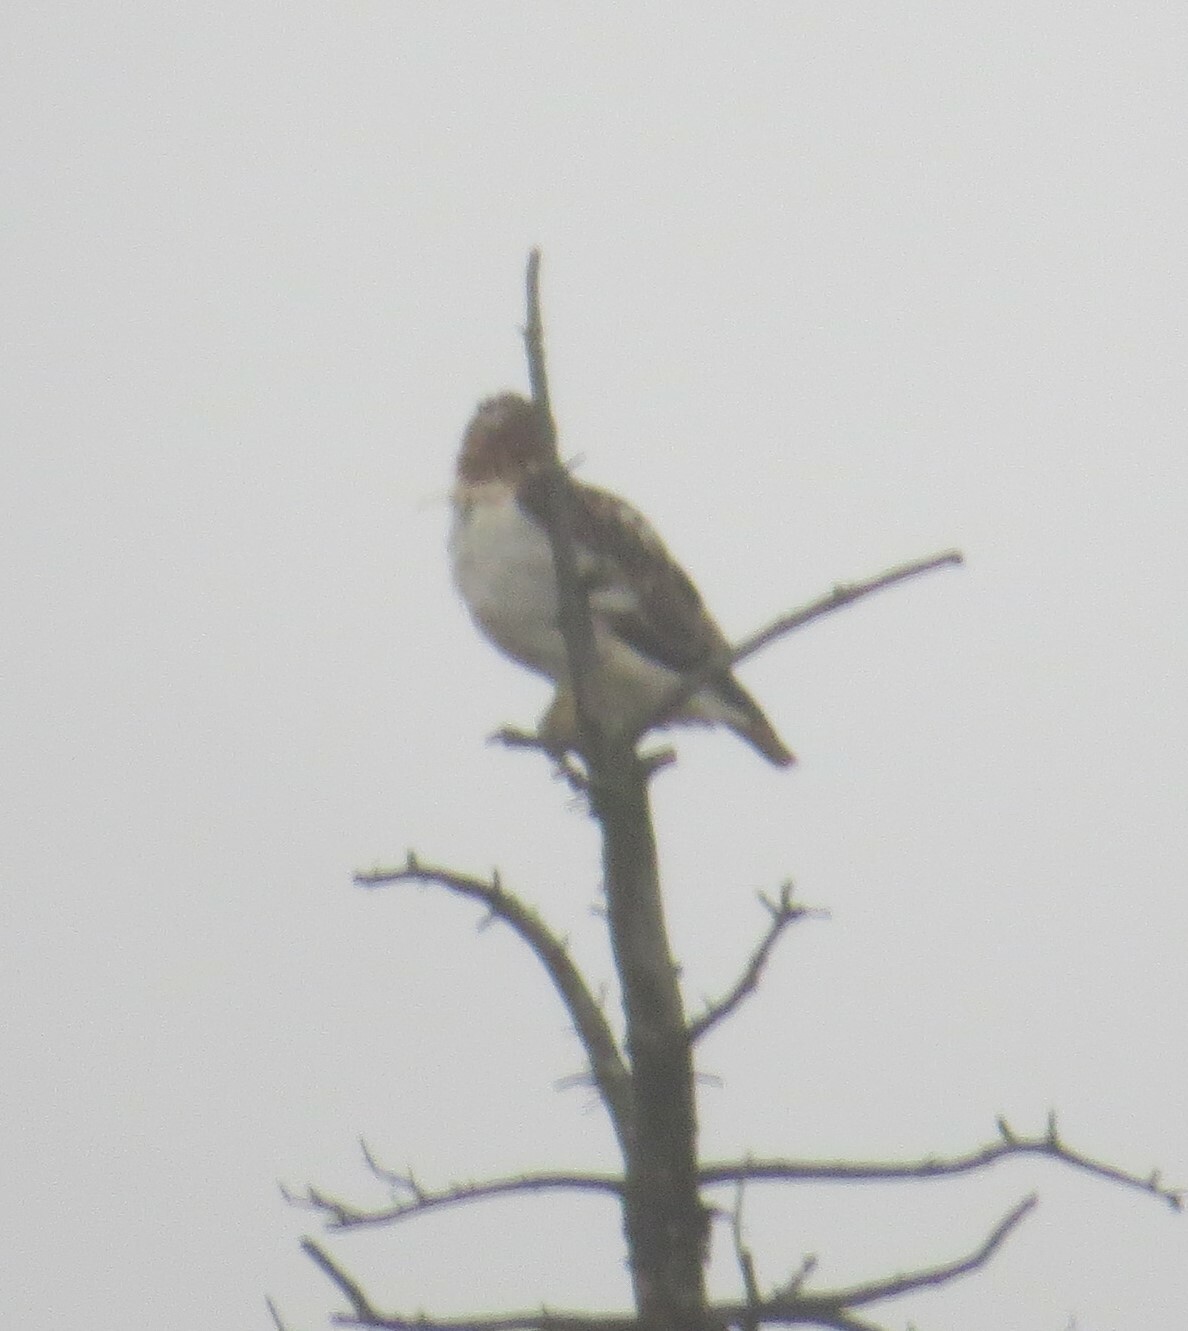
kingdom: Animalia
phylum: Chordata
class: Aves
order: Accipitriformes
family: Accipitridae
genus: Buteo
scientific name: Buteo jamaicensis
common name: Red-tailed hawk
